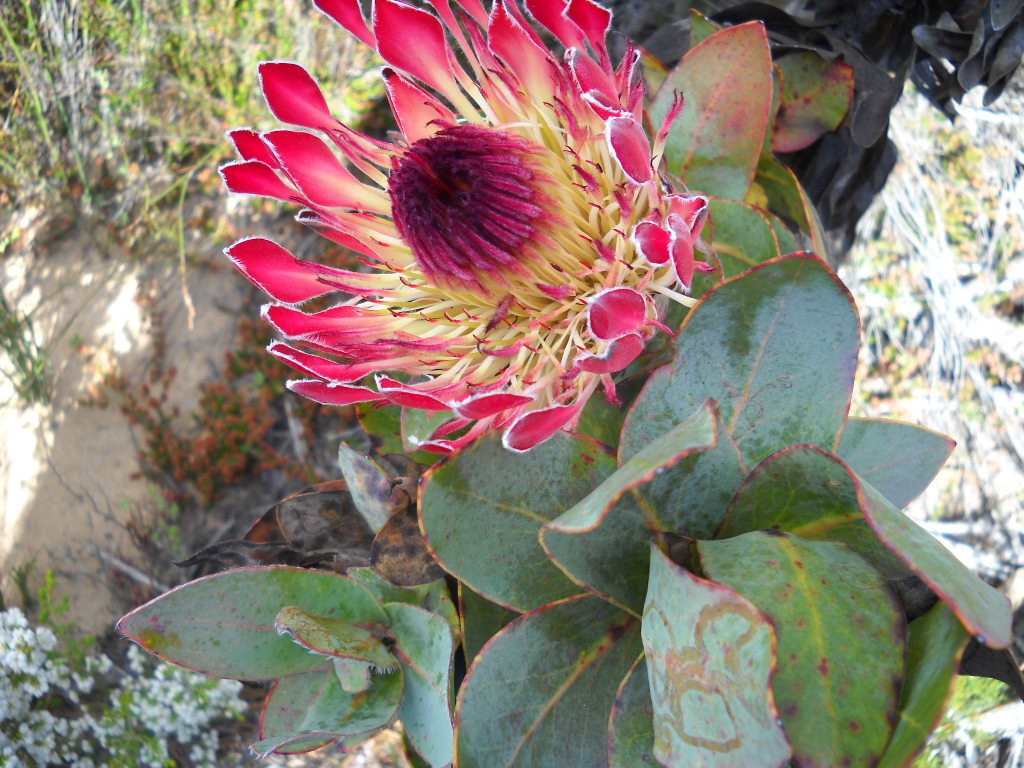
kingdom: Plantae
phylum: Tracheophyta
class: Magnoliopsida
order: Proteales
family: Proteaceae
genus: Protea
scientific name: Protea eximia
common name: Broad-leaved sugarbush
